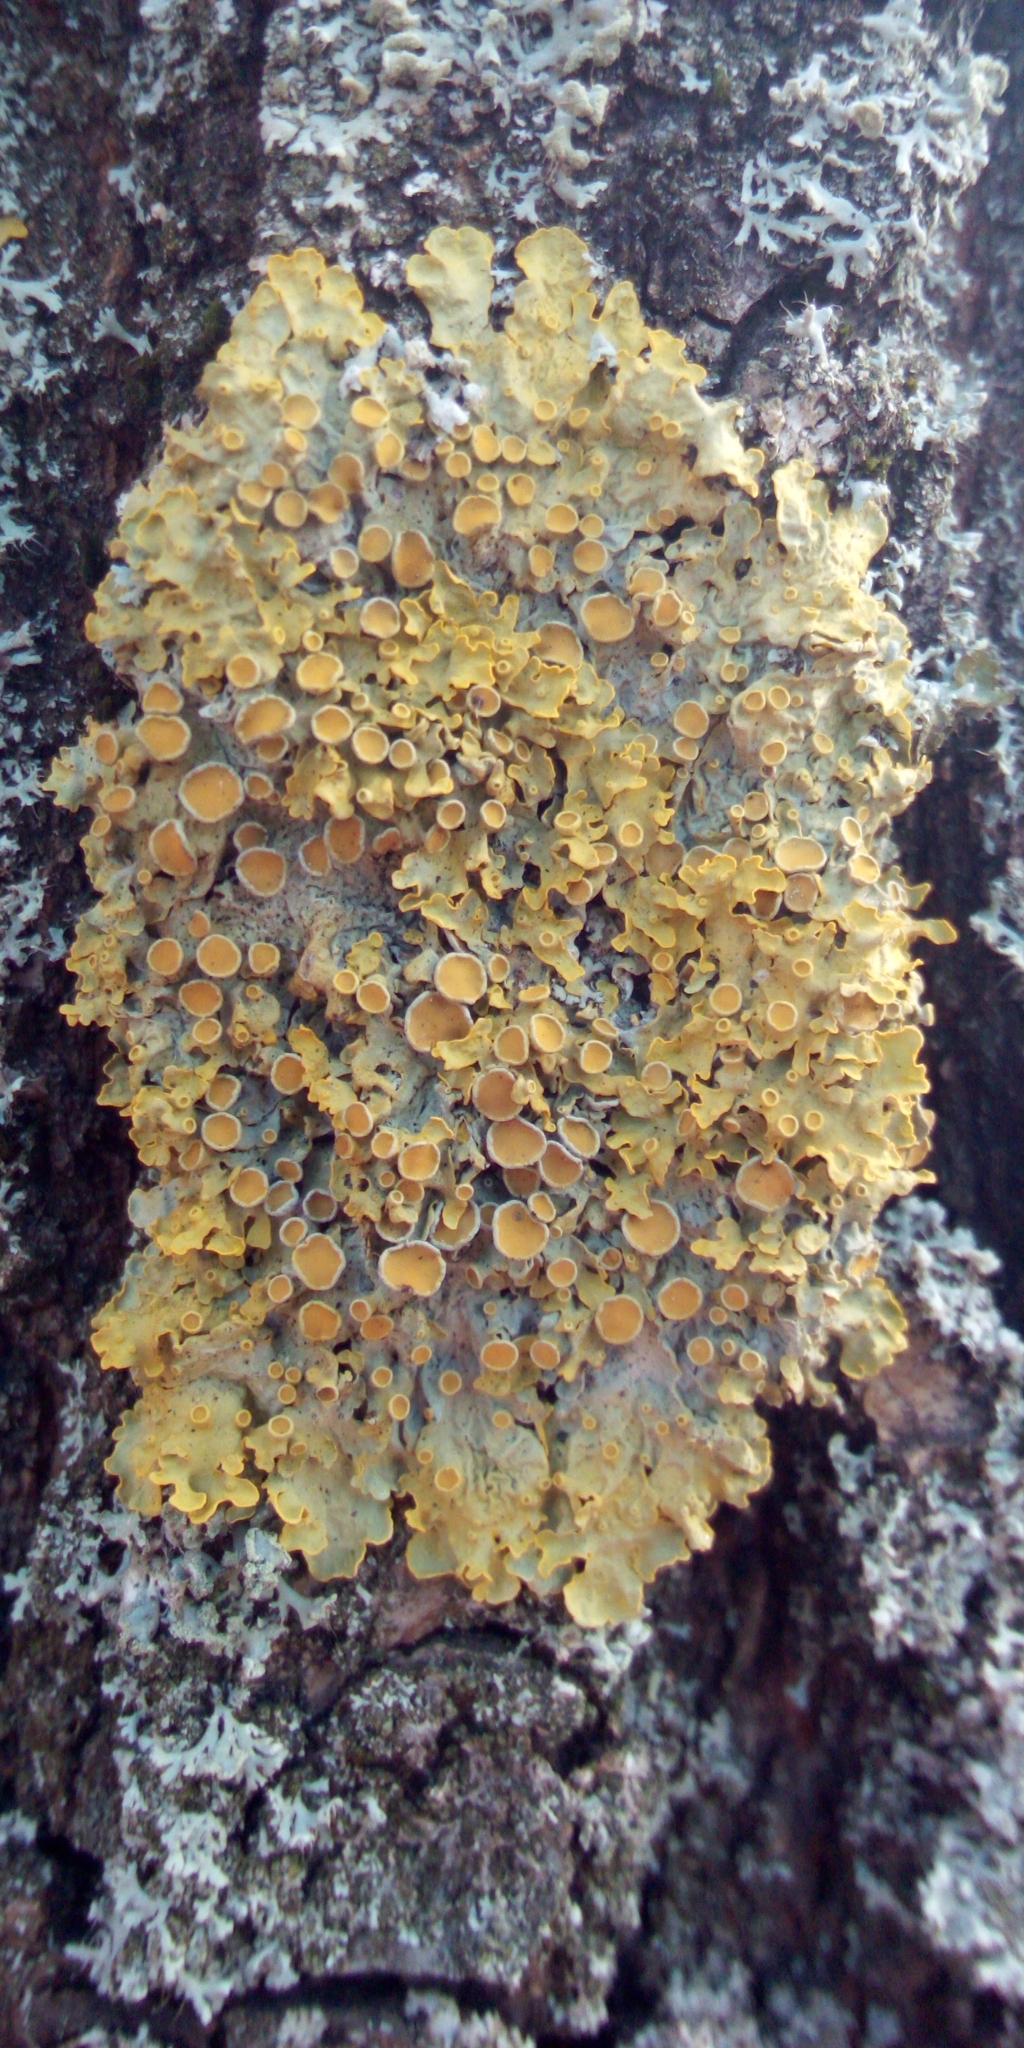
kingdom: Fungi
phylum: Ascomycota
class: Lecanoromycetes
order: Teloschistales
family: Teloschistaceae
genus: Xanthoria
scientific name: Xanthoria parietina
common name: Common orange lichen
